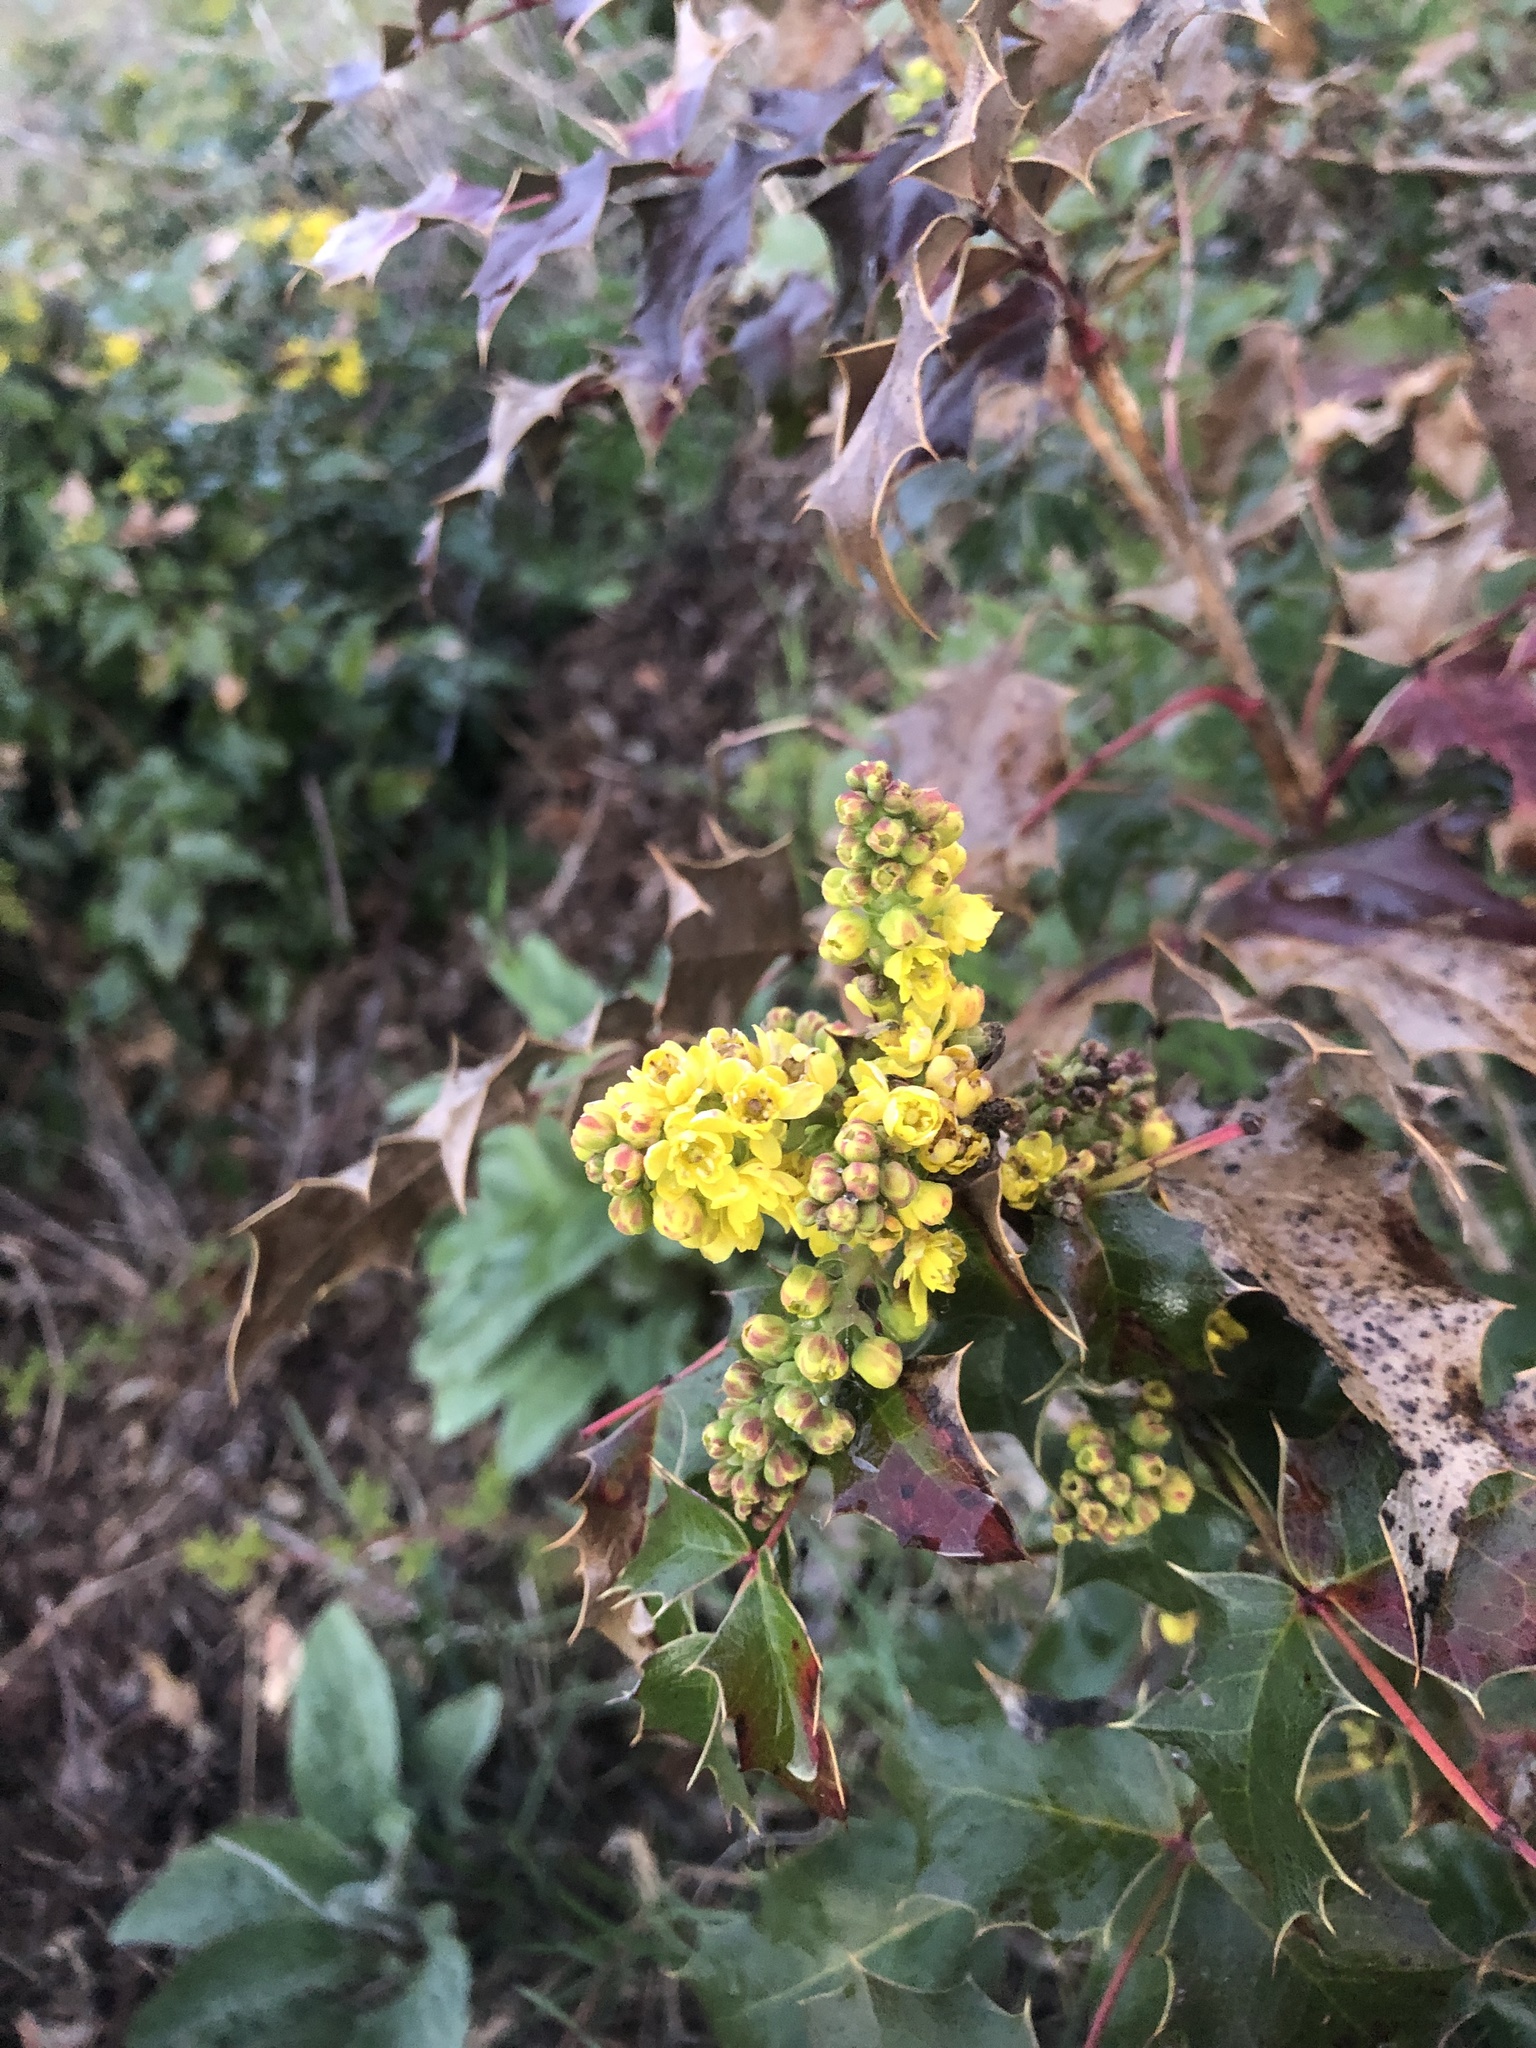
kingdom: Plantae
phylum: Tracheophyta
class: Magnoliopsida
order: Ranunculales
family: Berberidaceae
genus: Mahonia
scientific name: Mahonia aquifolium
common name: Oregon-grape
